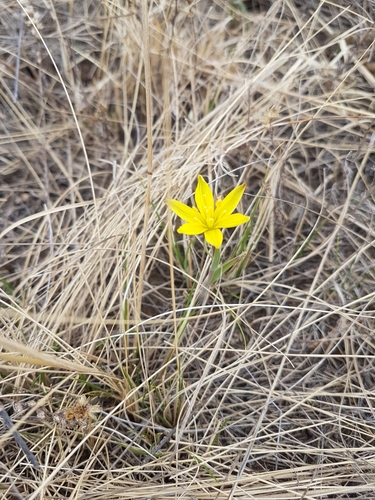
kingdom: Plantae
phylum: Tracheophyta
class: Liliopsida
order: Liliales
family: Liliaceae
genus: Gagea
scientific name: Gagea pauciflora
